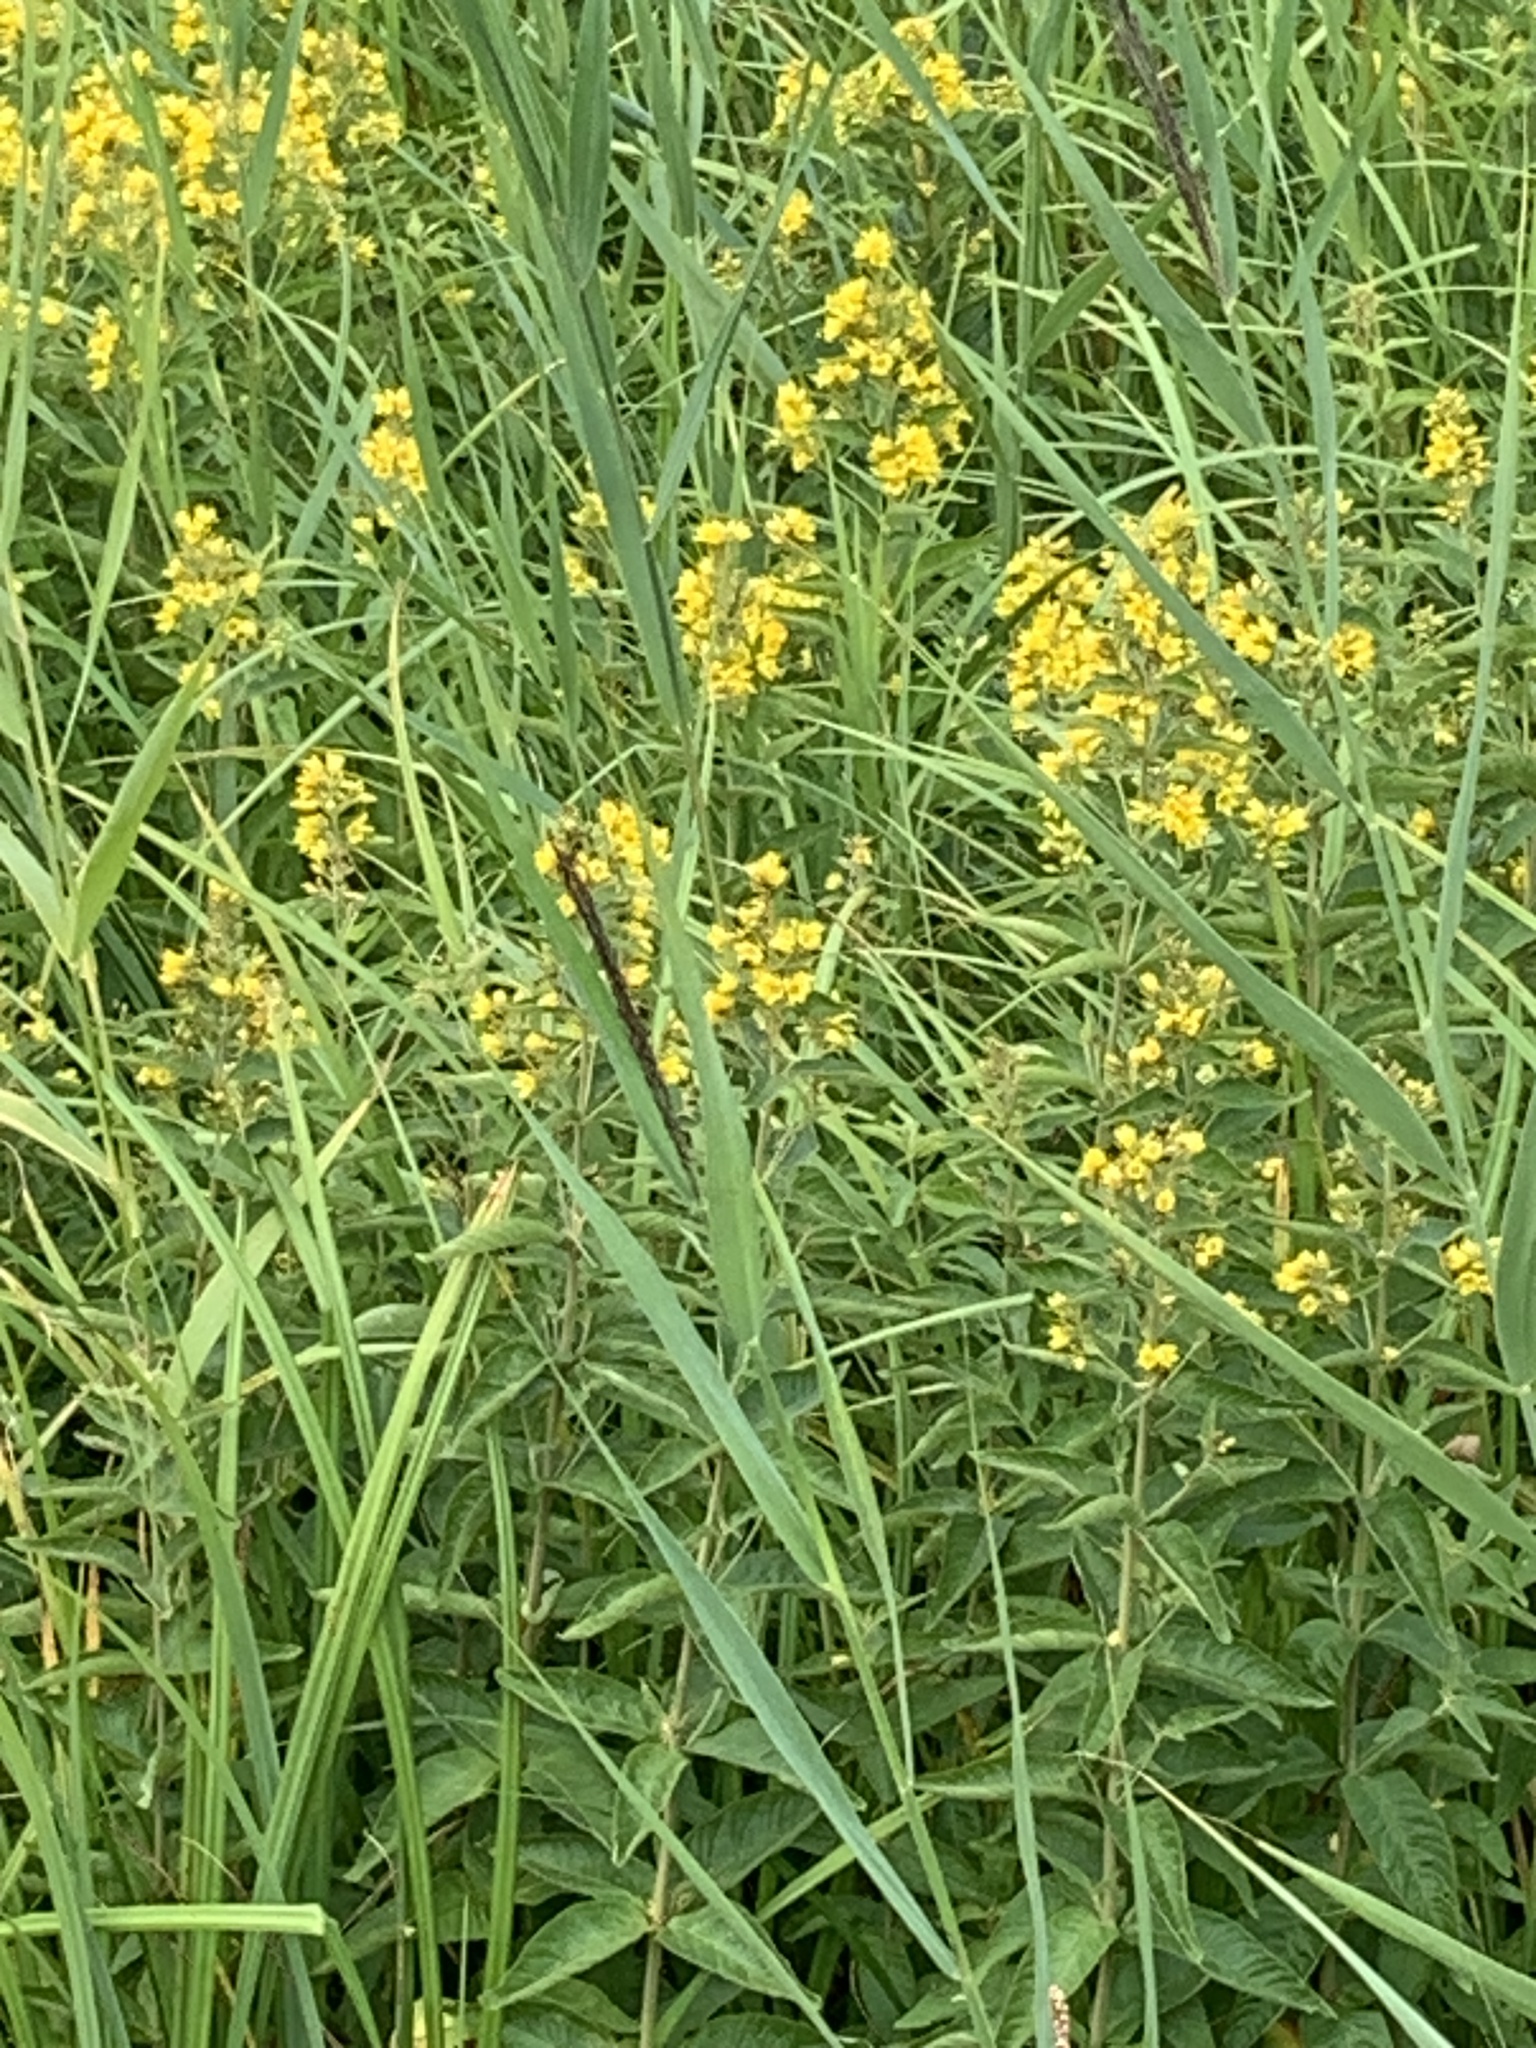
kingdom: Plantae
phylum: Tracheophyta
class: Magnoliopsida
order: Ericales
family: Primulaceae
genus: Lysimachia
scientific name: Lysimachia vulgaris
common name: Yellow loosestrife
